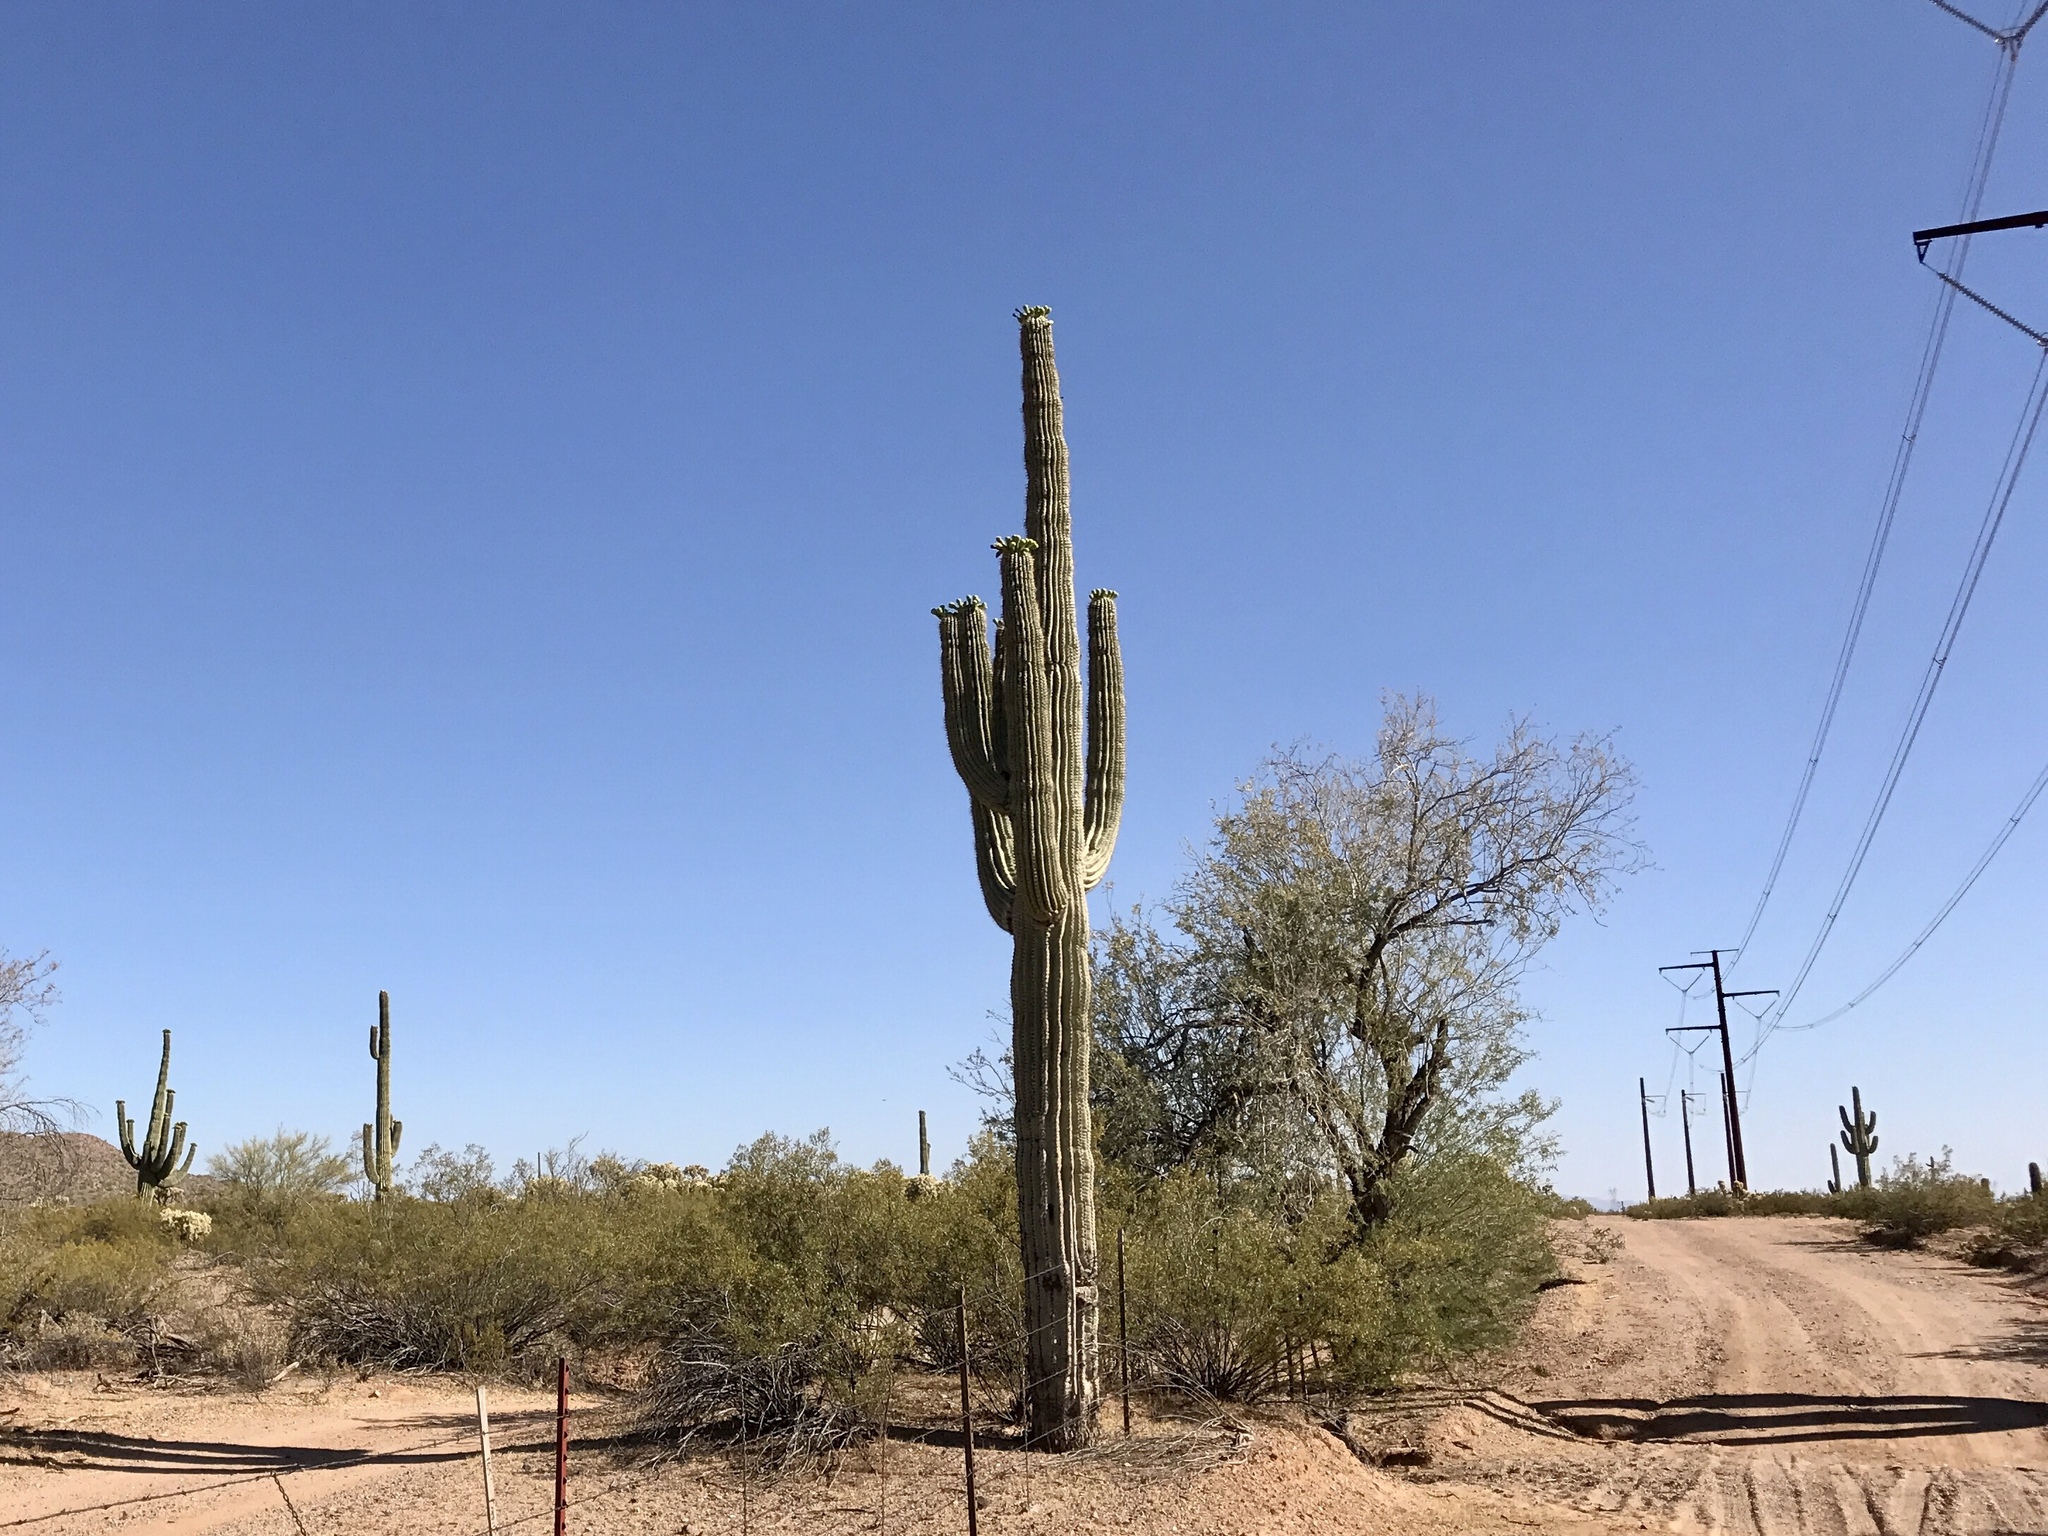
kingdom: Plantae
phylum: Tracheophyta
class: Magnoliopsida
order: Caryophyllales
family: Cactaceae
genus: Carnegiea
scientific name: Carnegiea gigantea
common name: Saguaro
